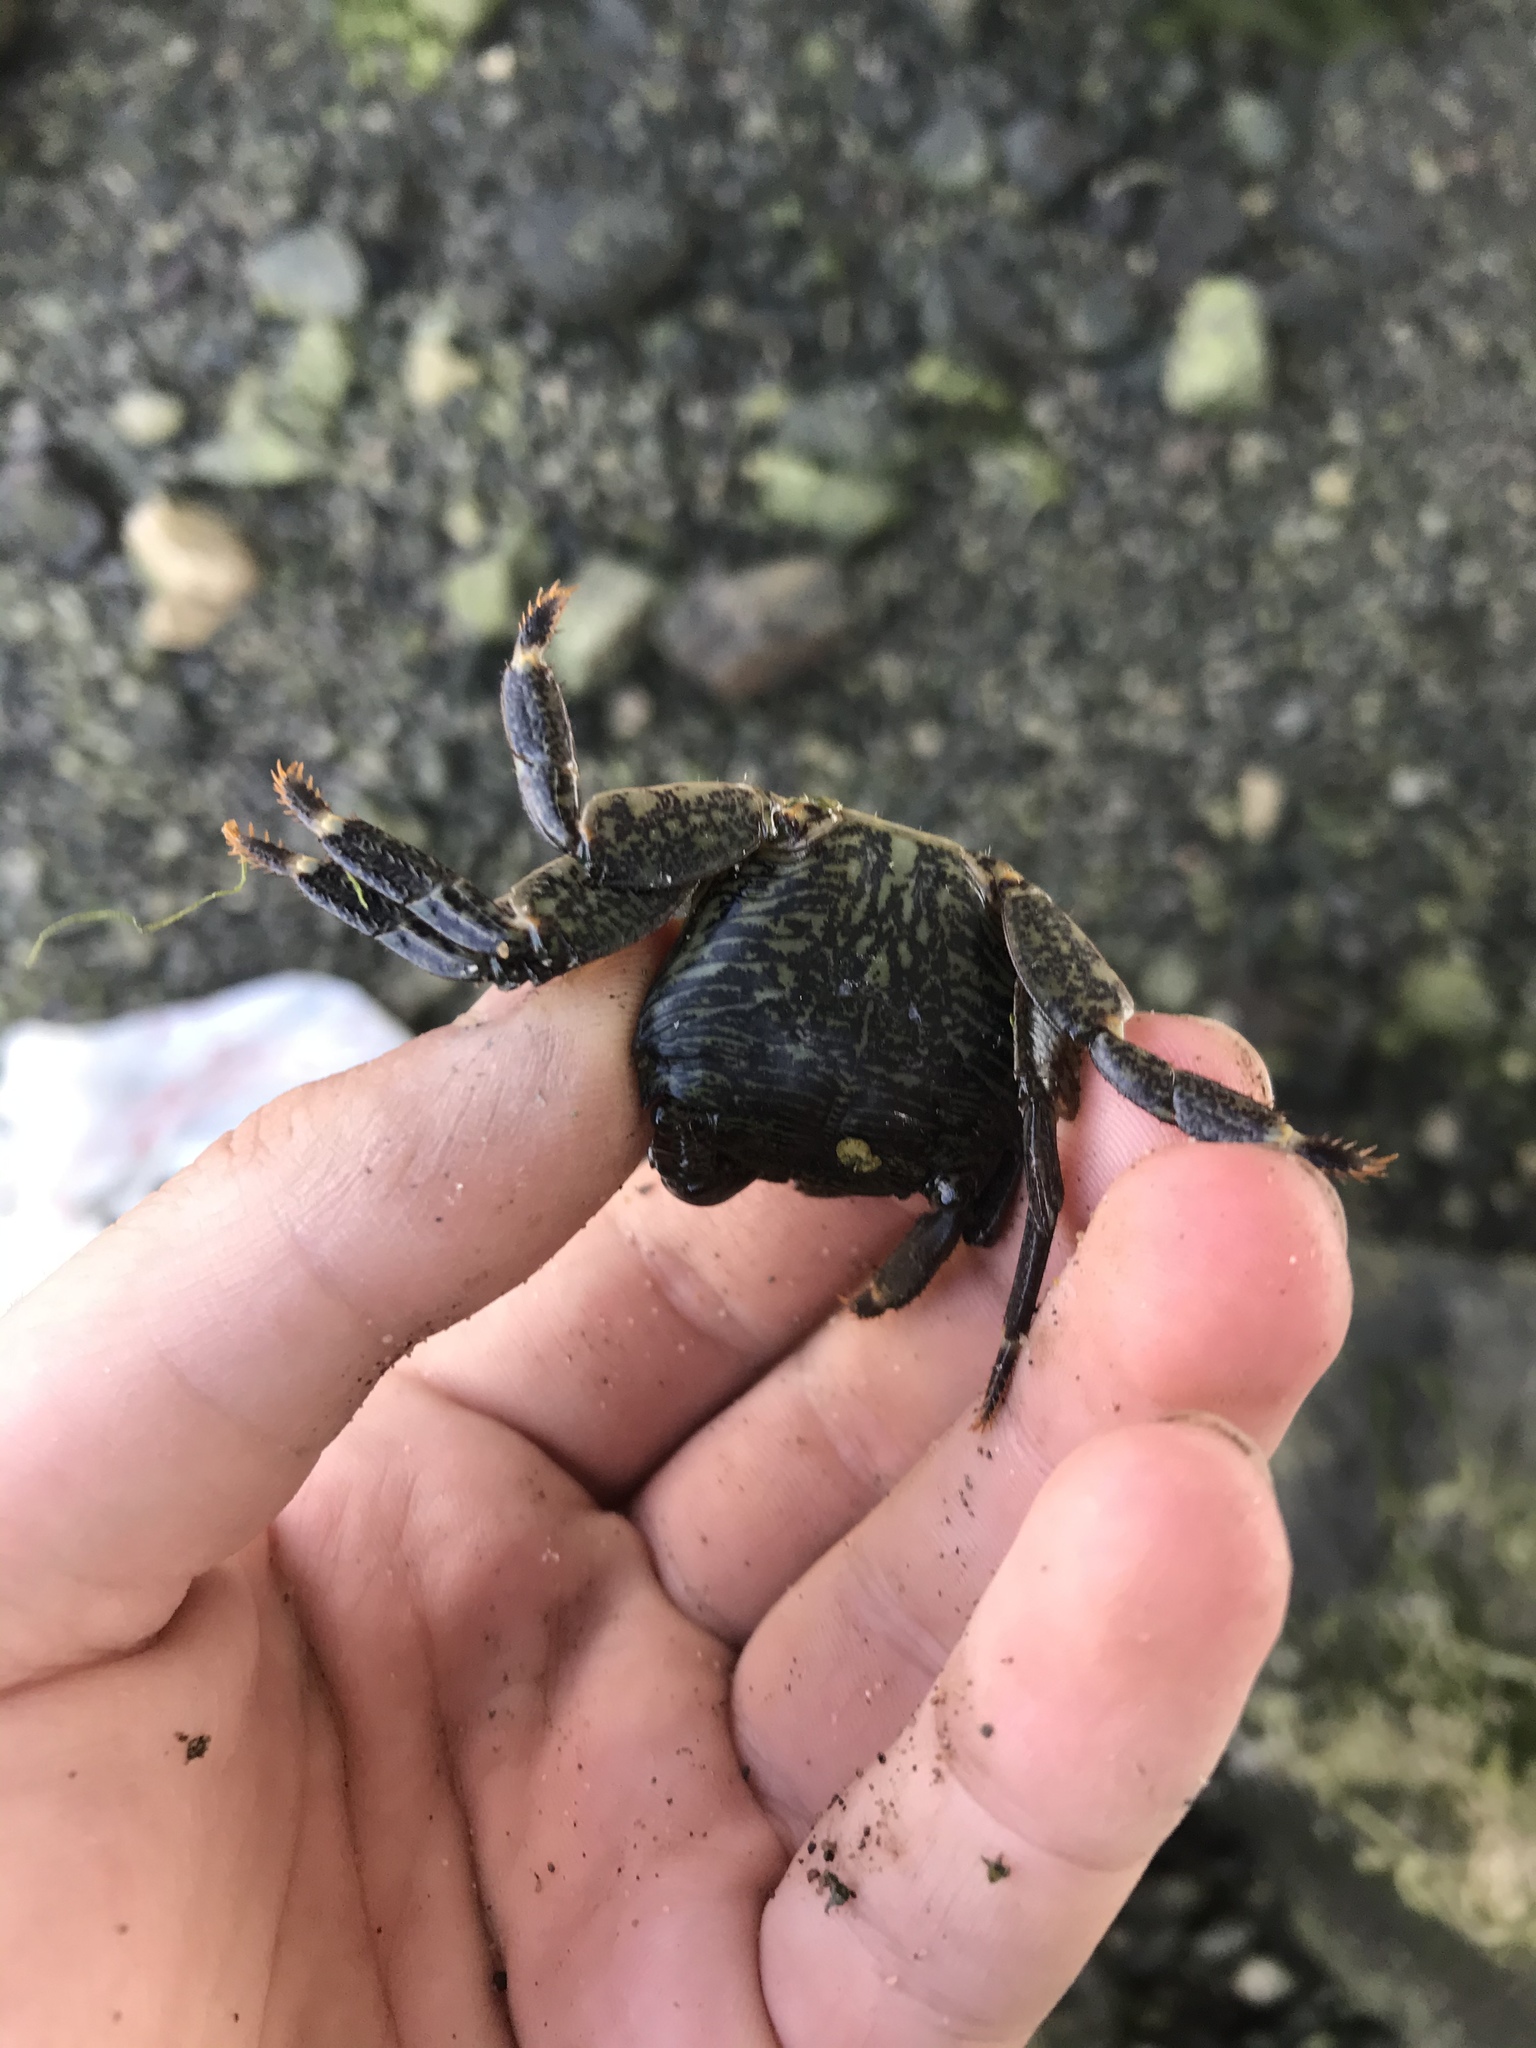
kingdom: Animalia
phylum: Arthropoda
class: Malacostraca
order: Decapoda
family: Grapsidae
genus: Pachygrapsus
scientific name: Pachygrapsus crassipes
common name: Striped shore crab
